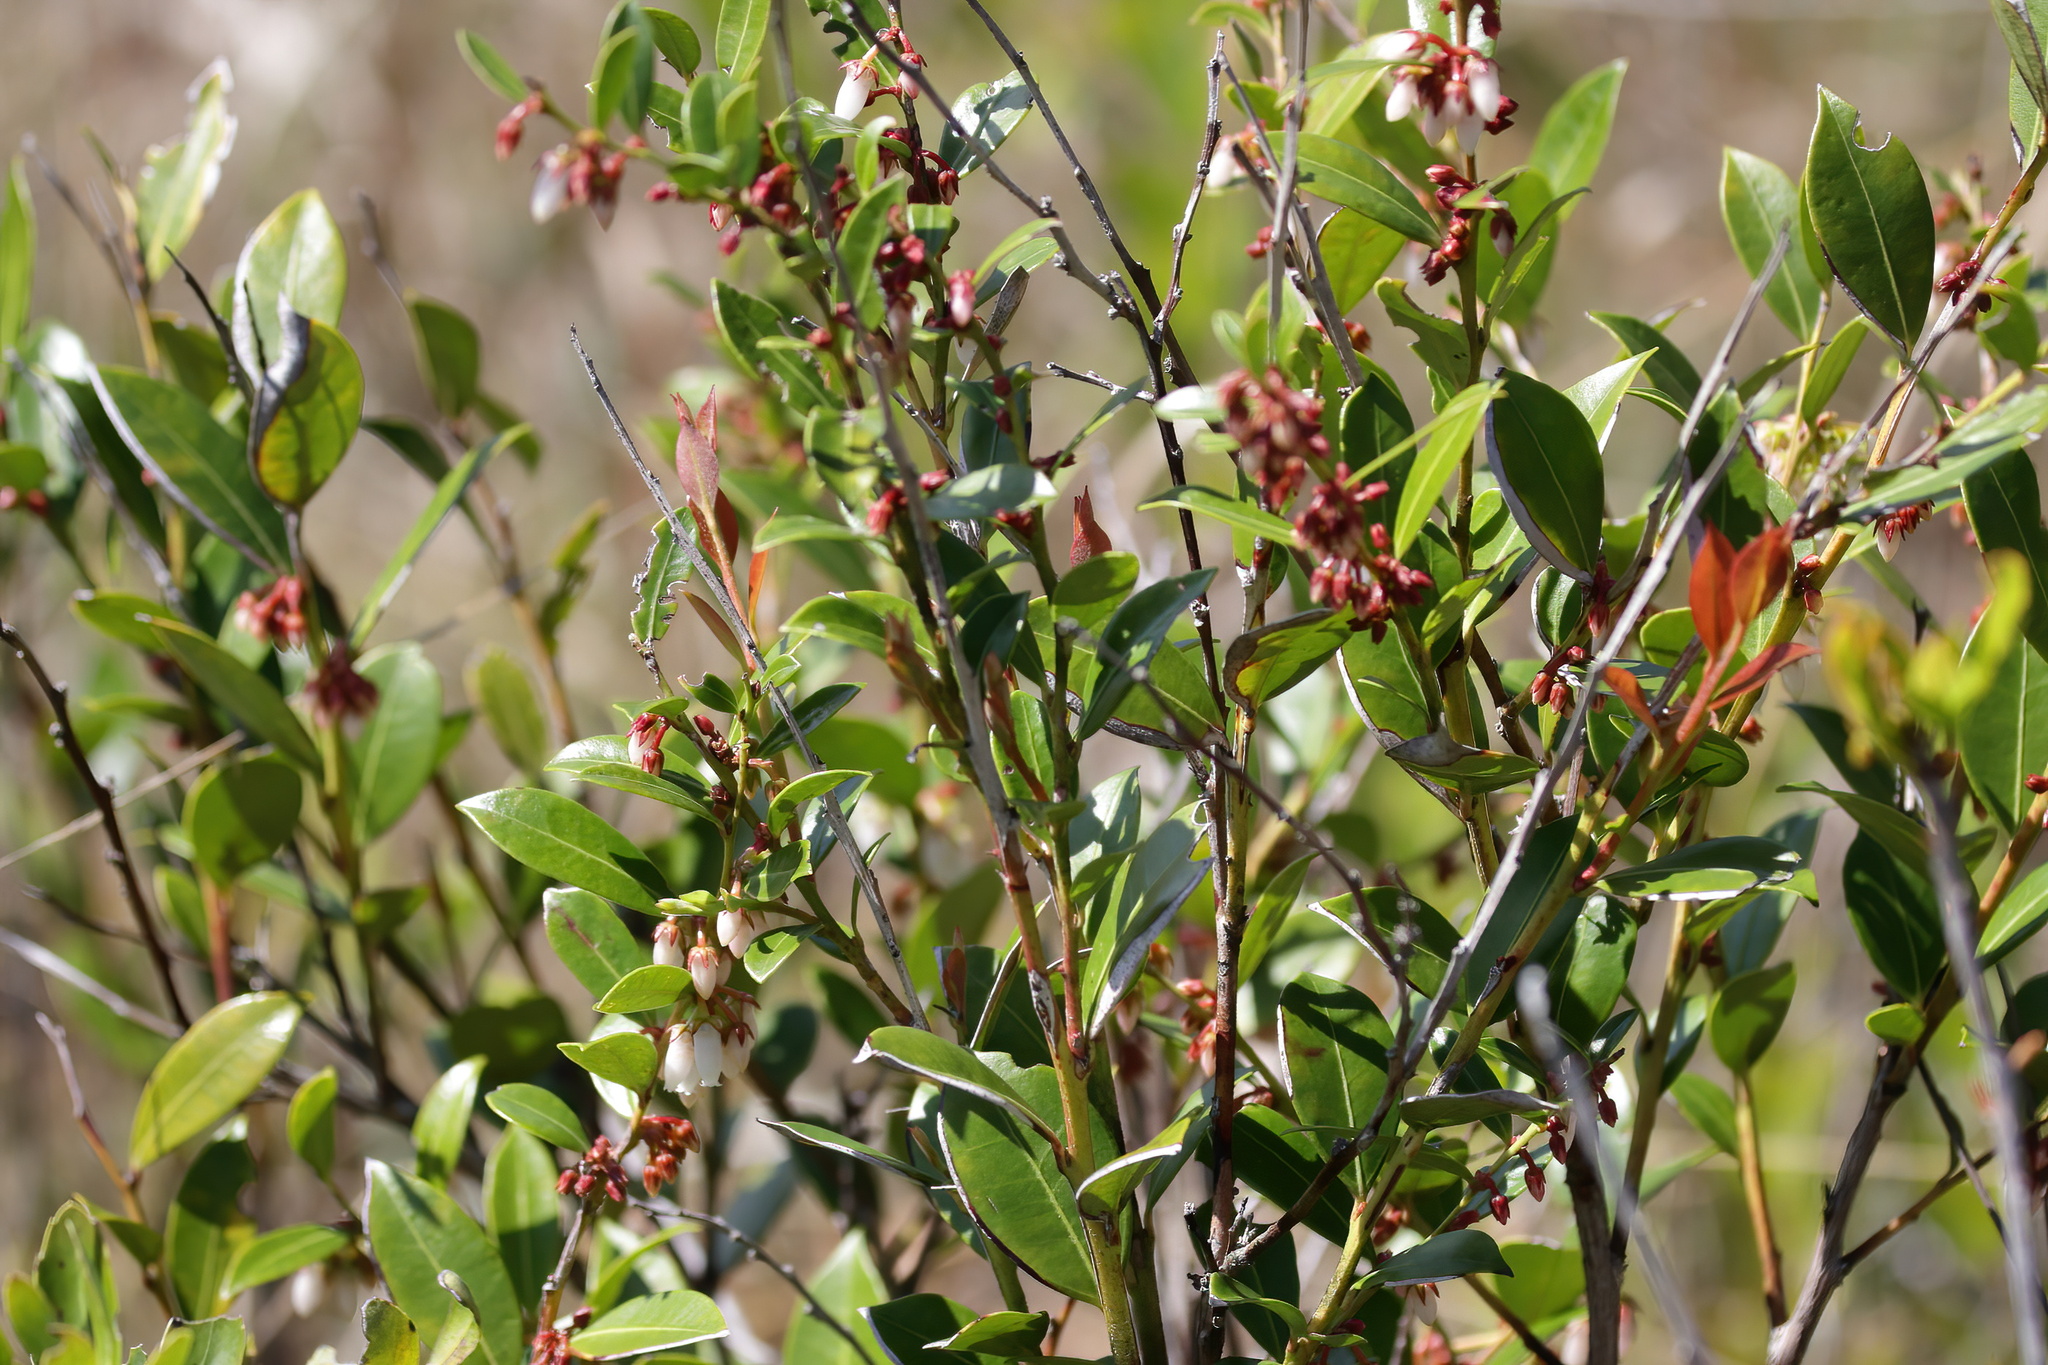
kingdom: Plantae
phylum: Tracheophyta
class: Magnoliopsida
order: Ericales
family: Ericaceae
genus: Lyonia
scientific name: Lyonia lucida
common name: Fetterbush
